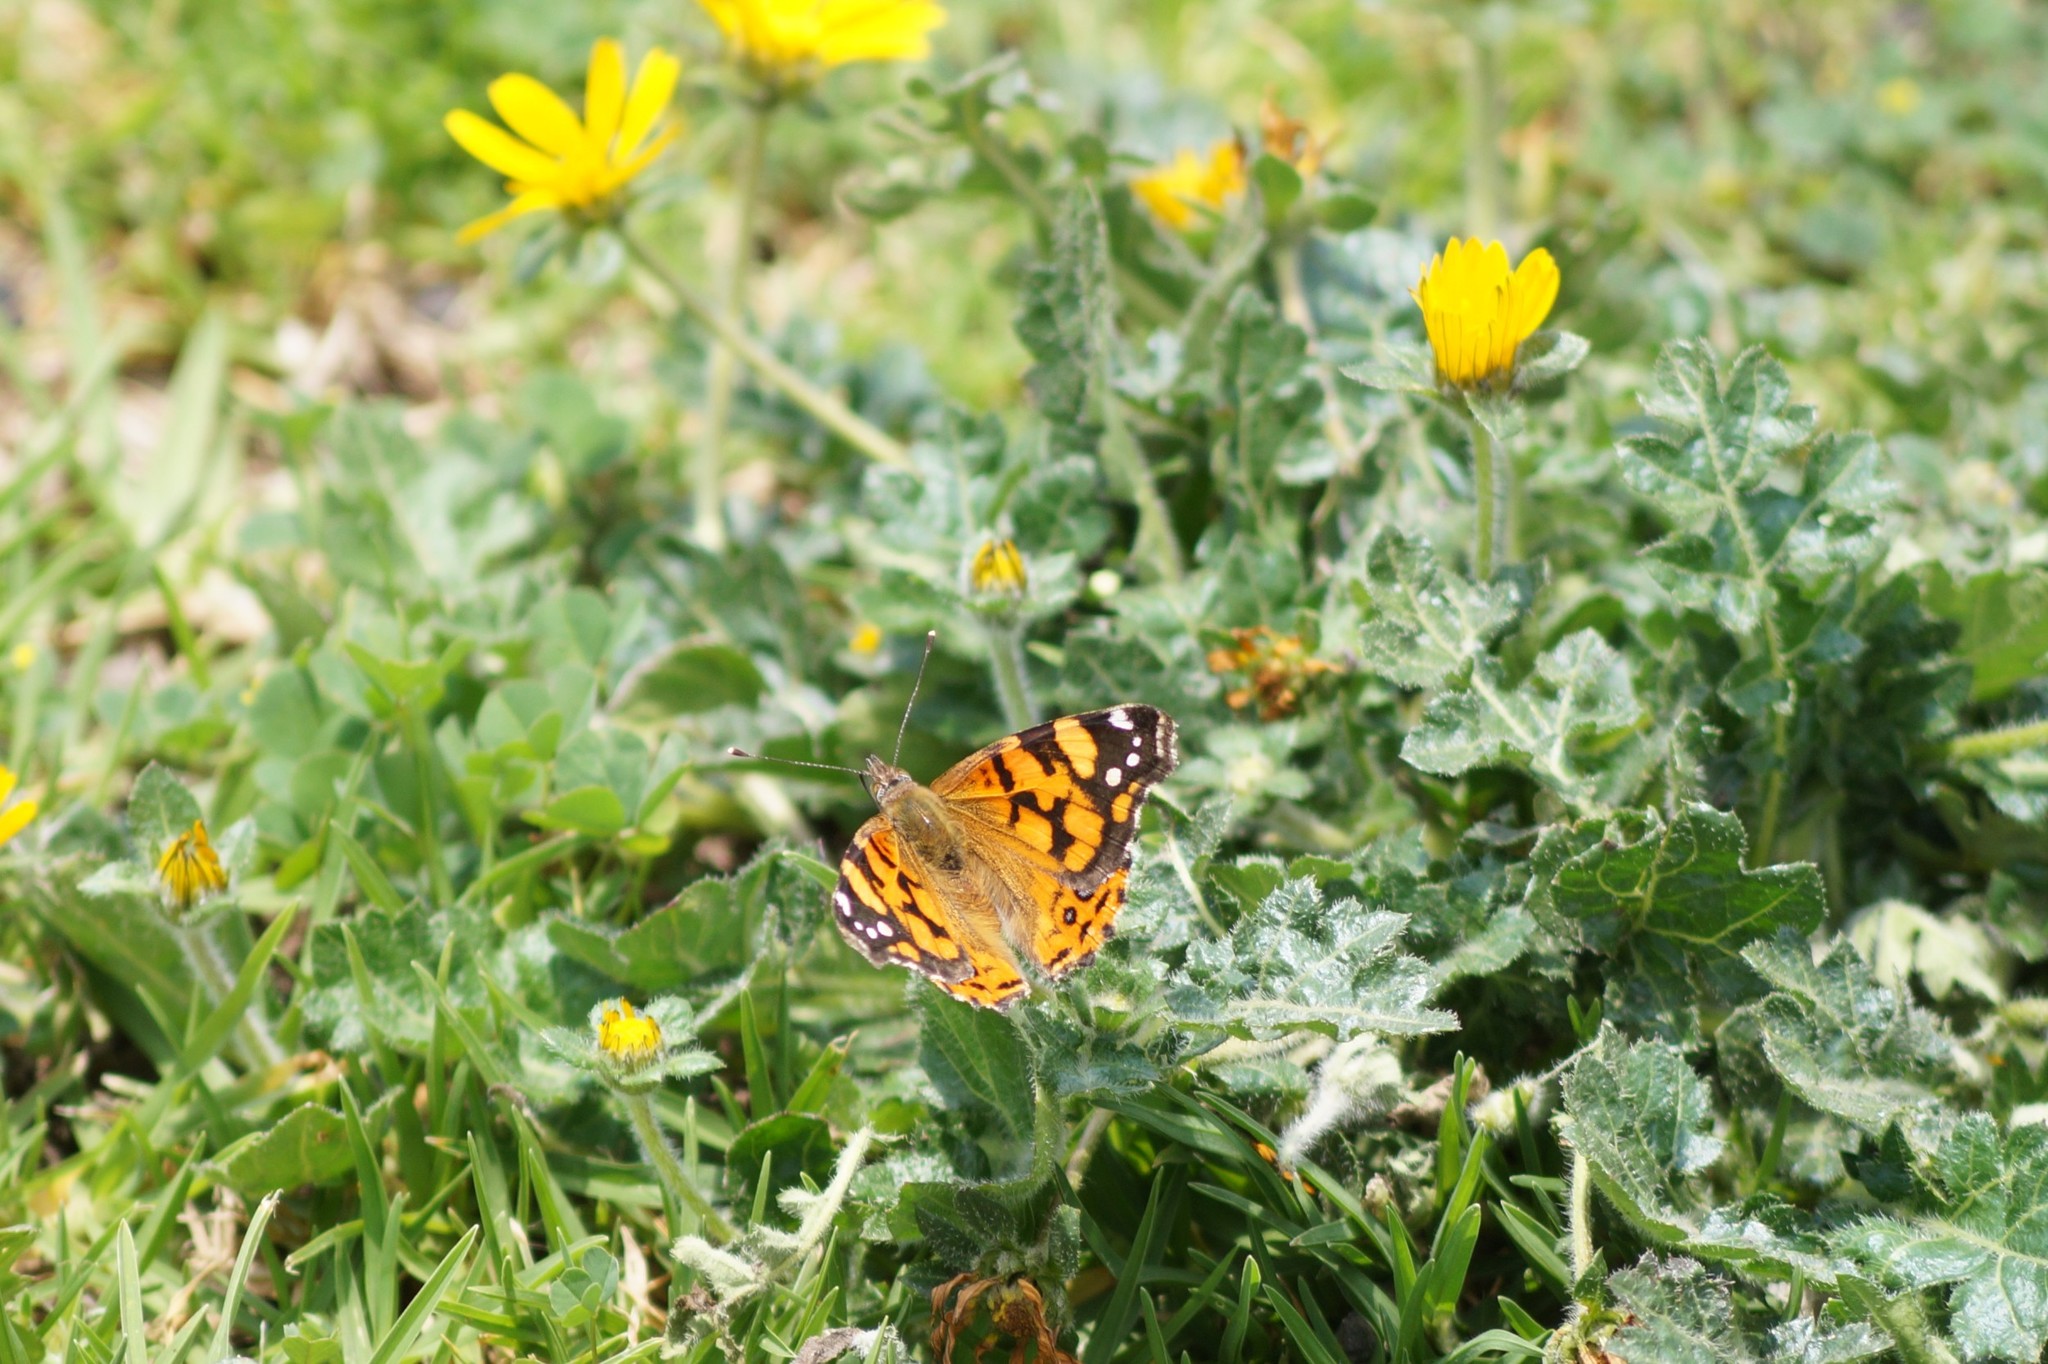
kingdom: Animalia
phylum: Arthropoda
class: Insecta
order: Lepidoptera
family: Nymphalidae
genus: Vanessa
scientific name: Vanessa annabella
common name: West coast lady
